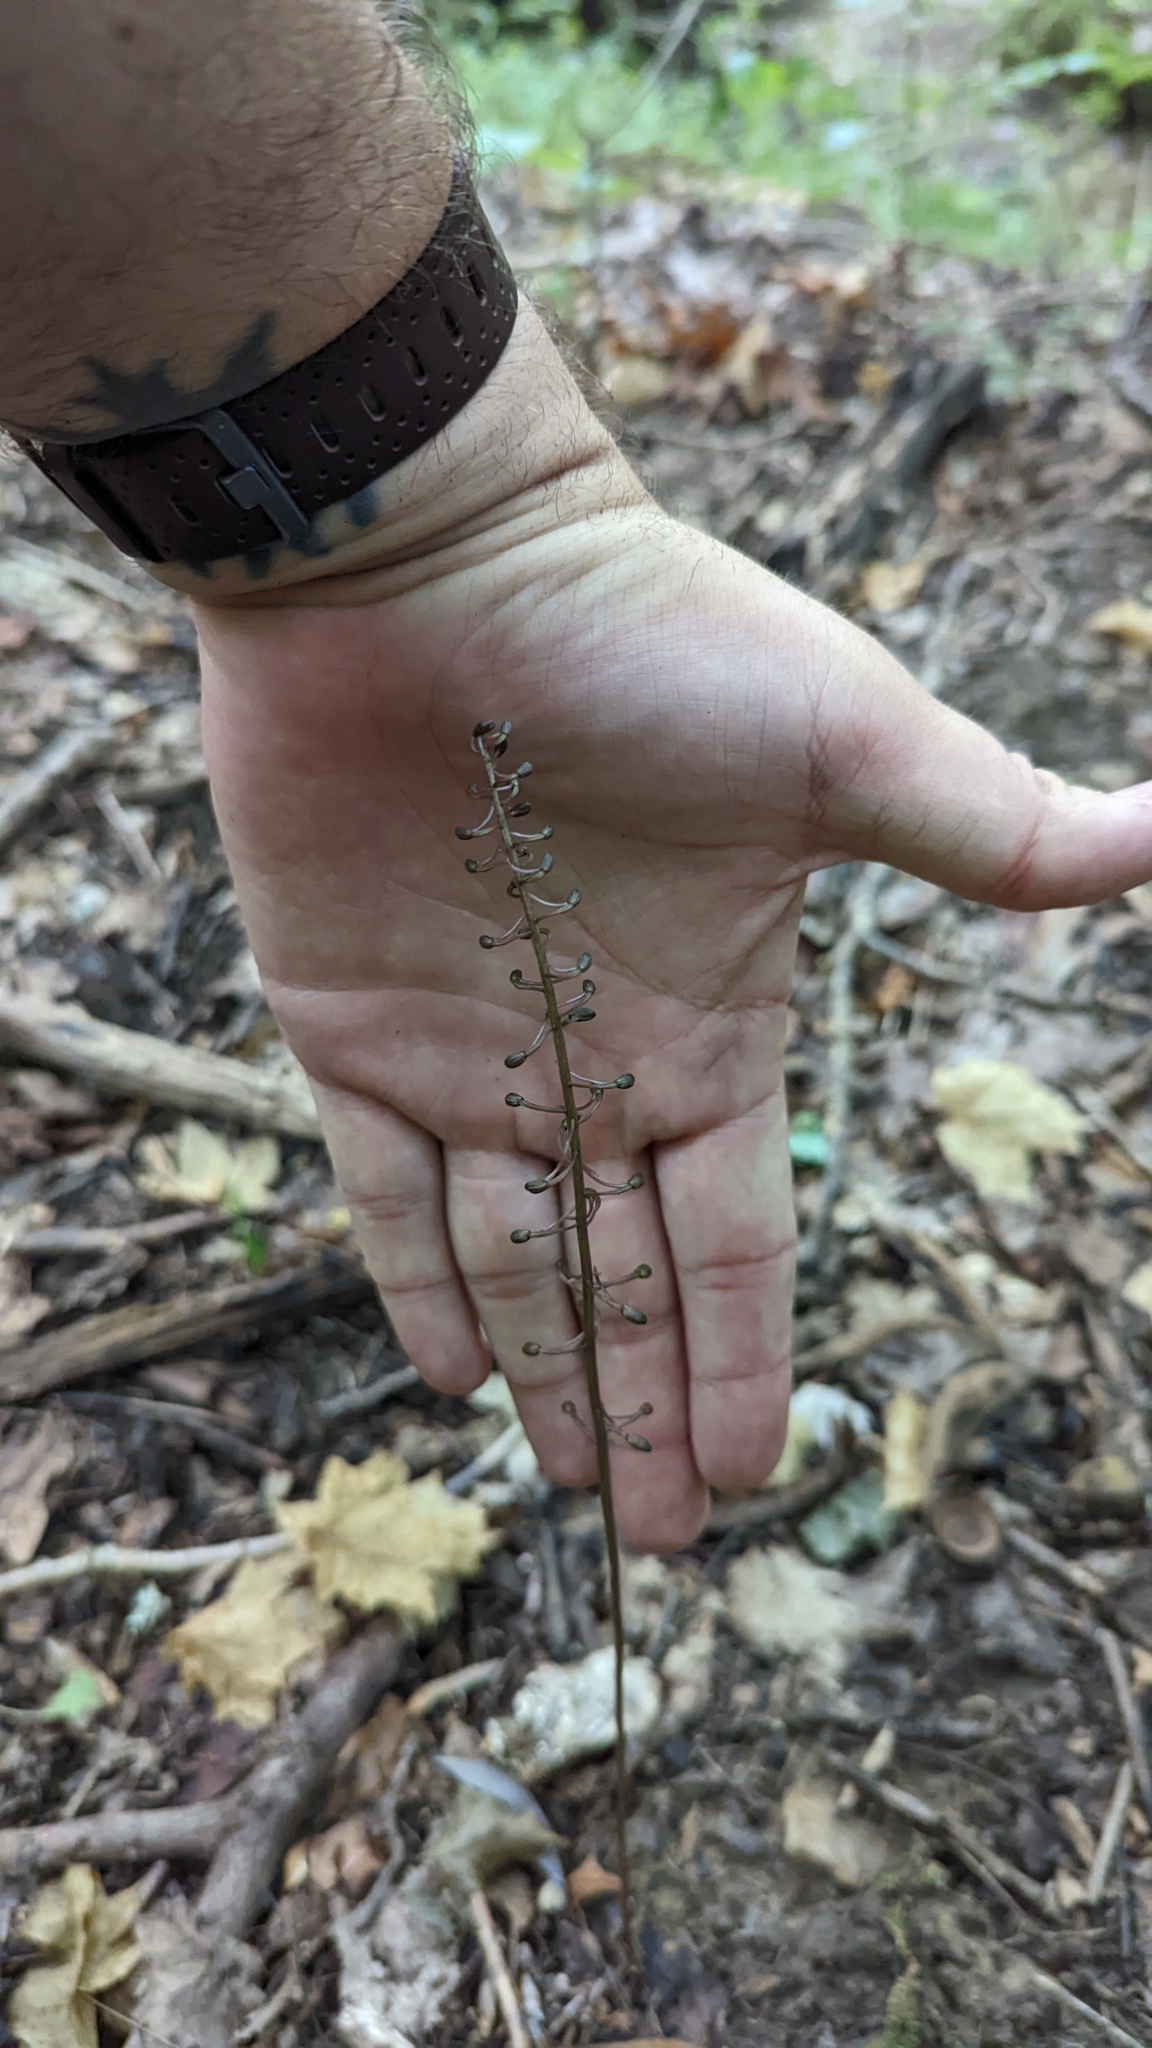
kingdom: Plantae
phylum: Tracheophyta
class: Liliopsida
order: Asparagales
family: Orchidaceae
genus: Tipularia
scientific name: Tipularia discolor
